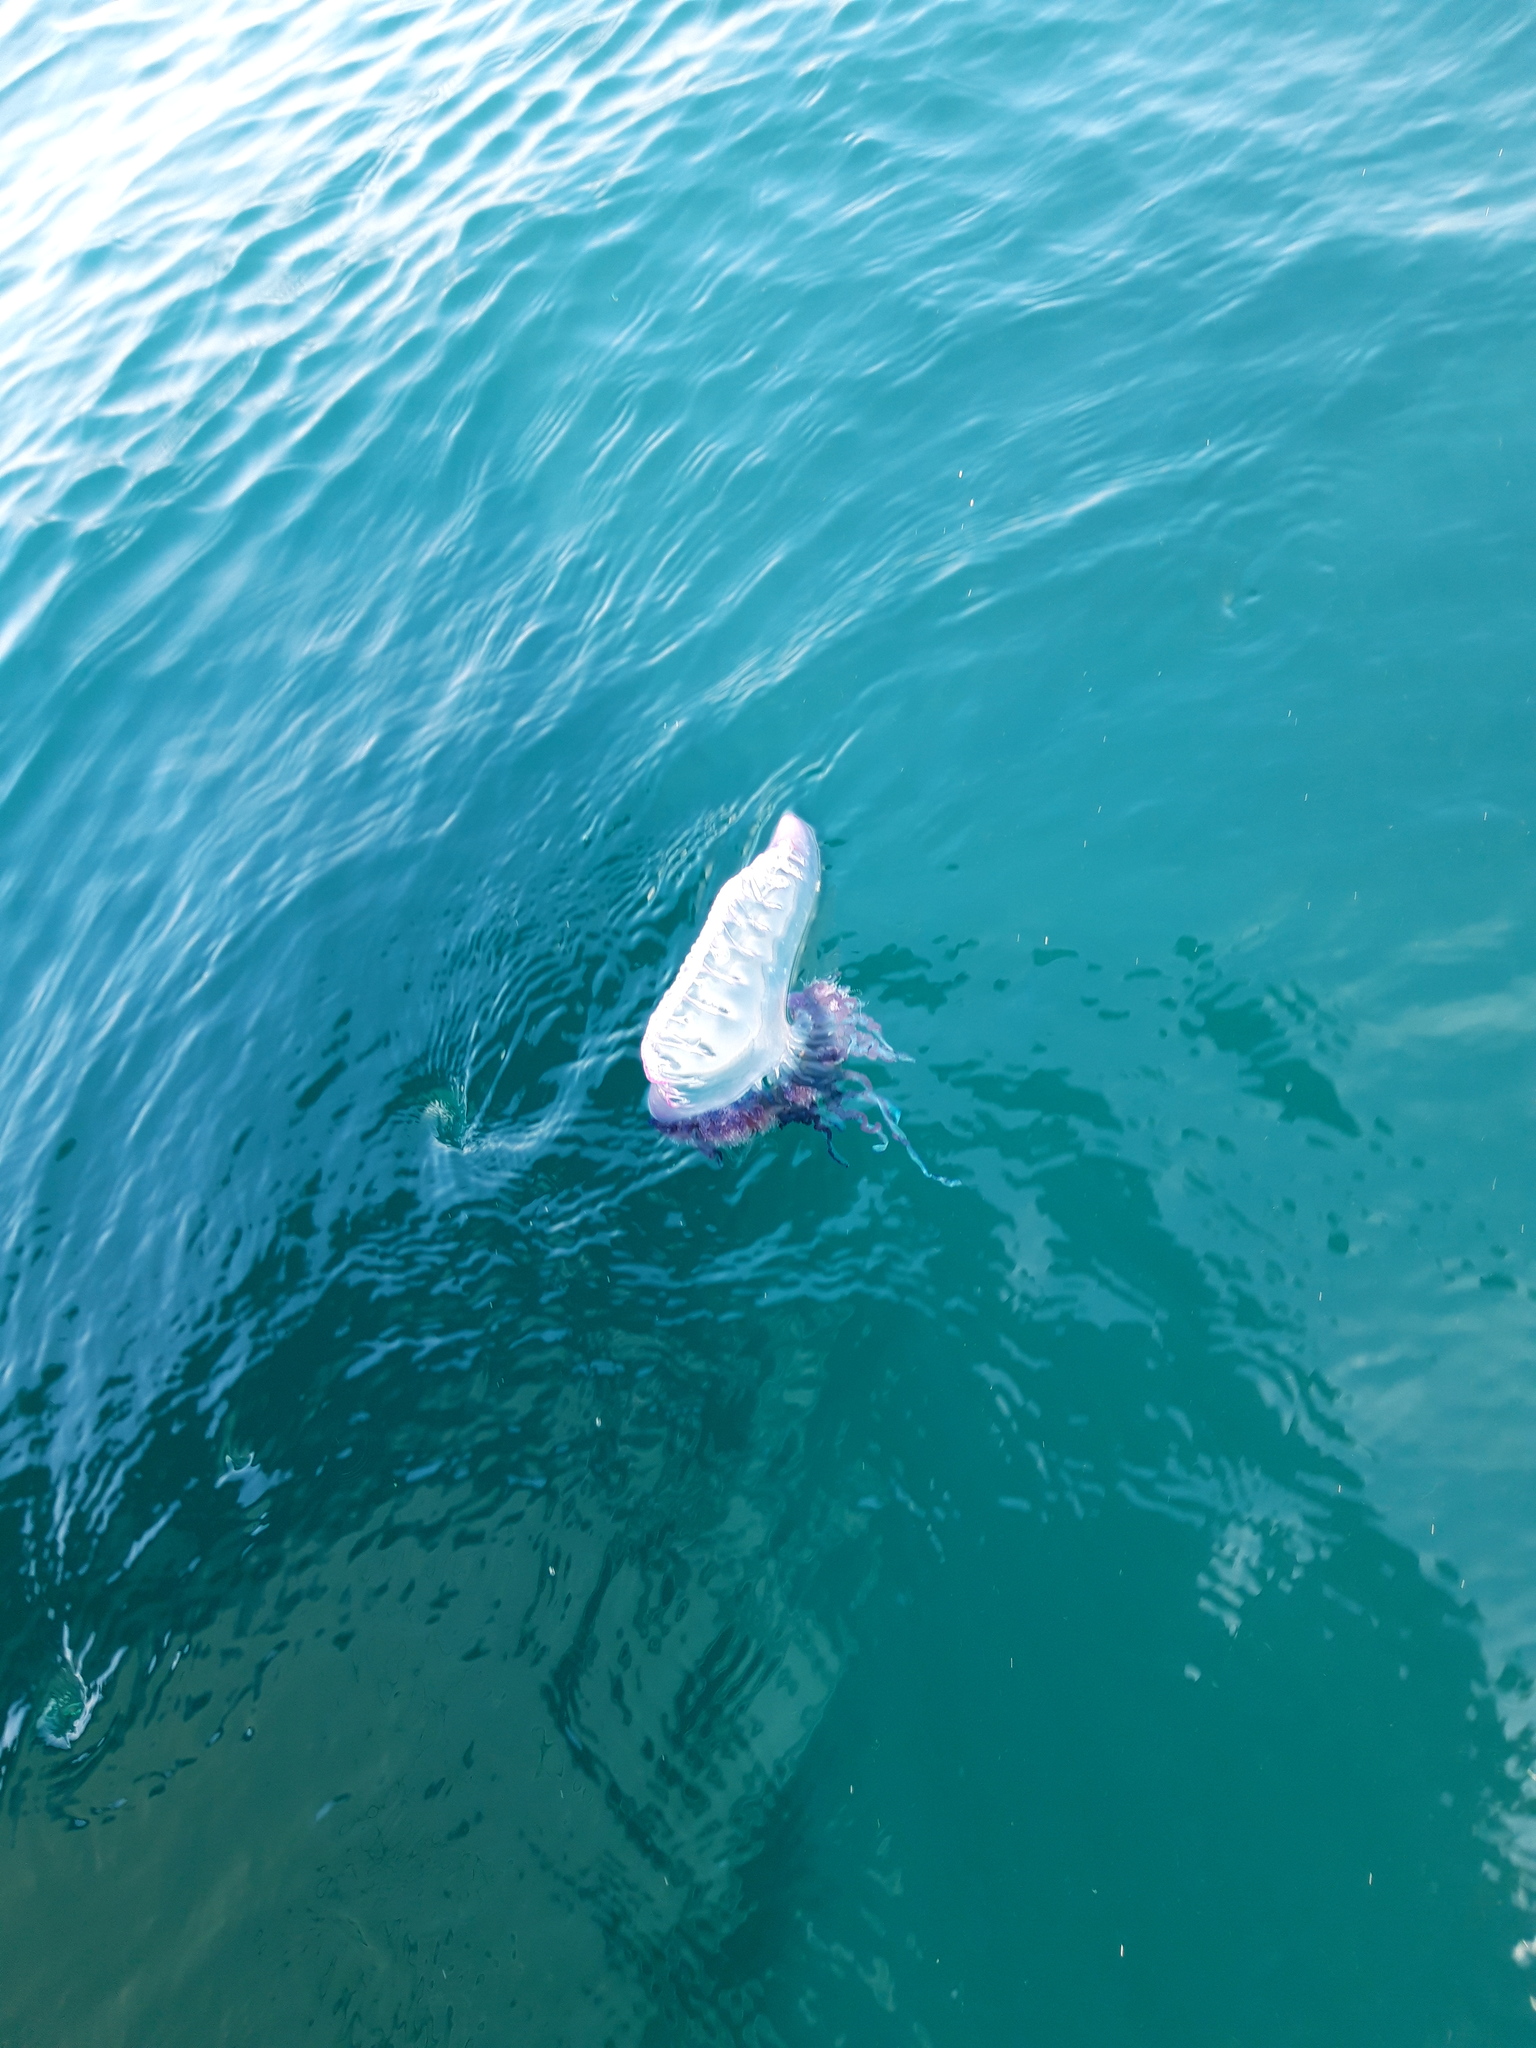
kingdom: Animalia
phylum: Cnidaria
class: Hydrozoa
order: Siphonophorae
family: Physaliidae
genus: Physalia
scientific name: Physalia physalis
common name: Portuguese man-of-war
